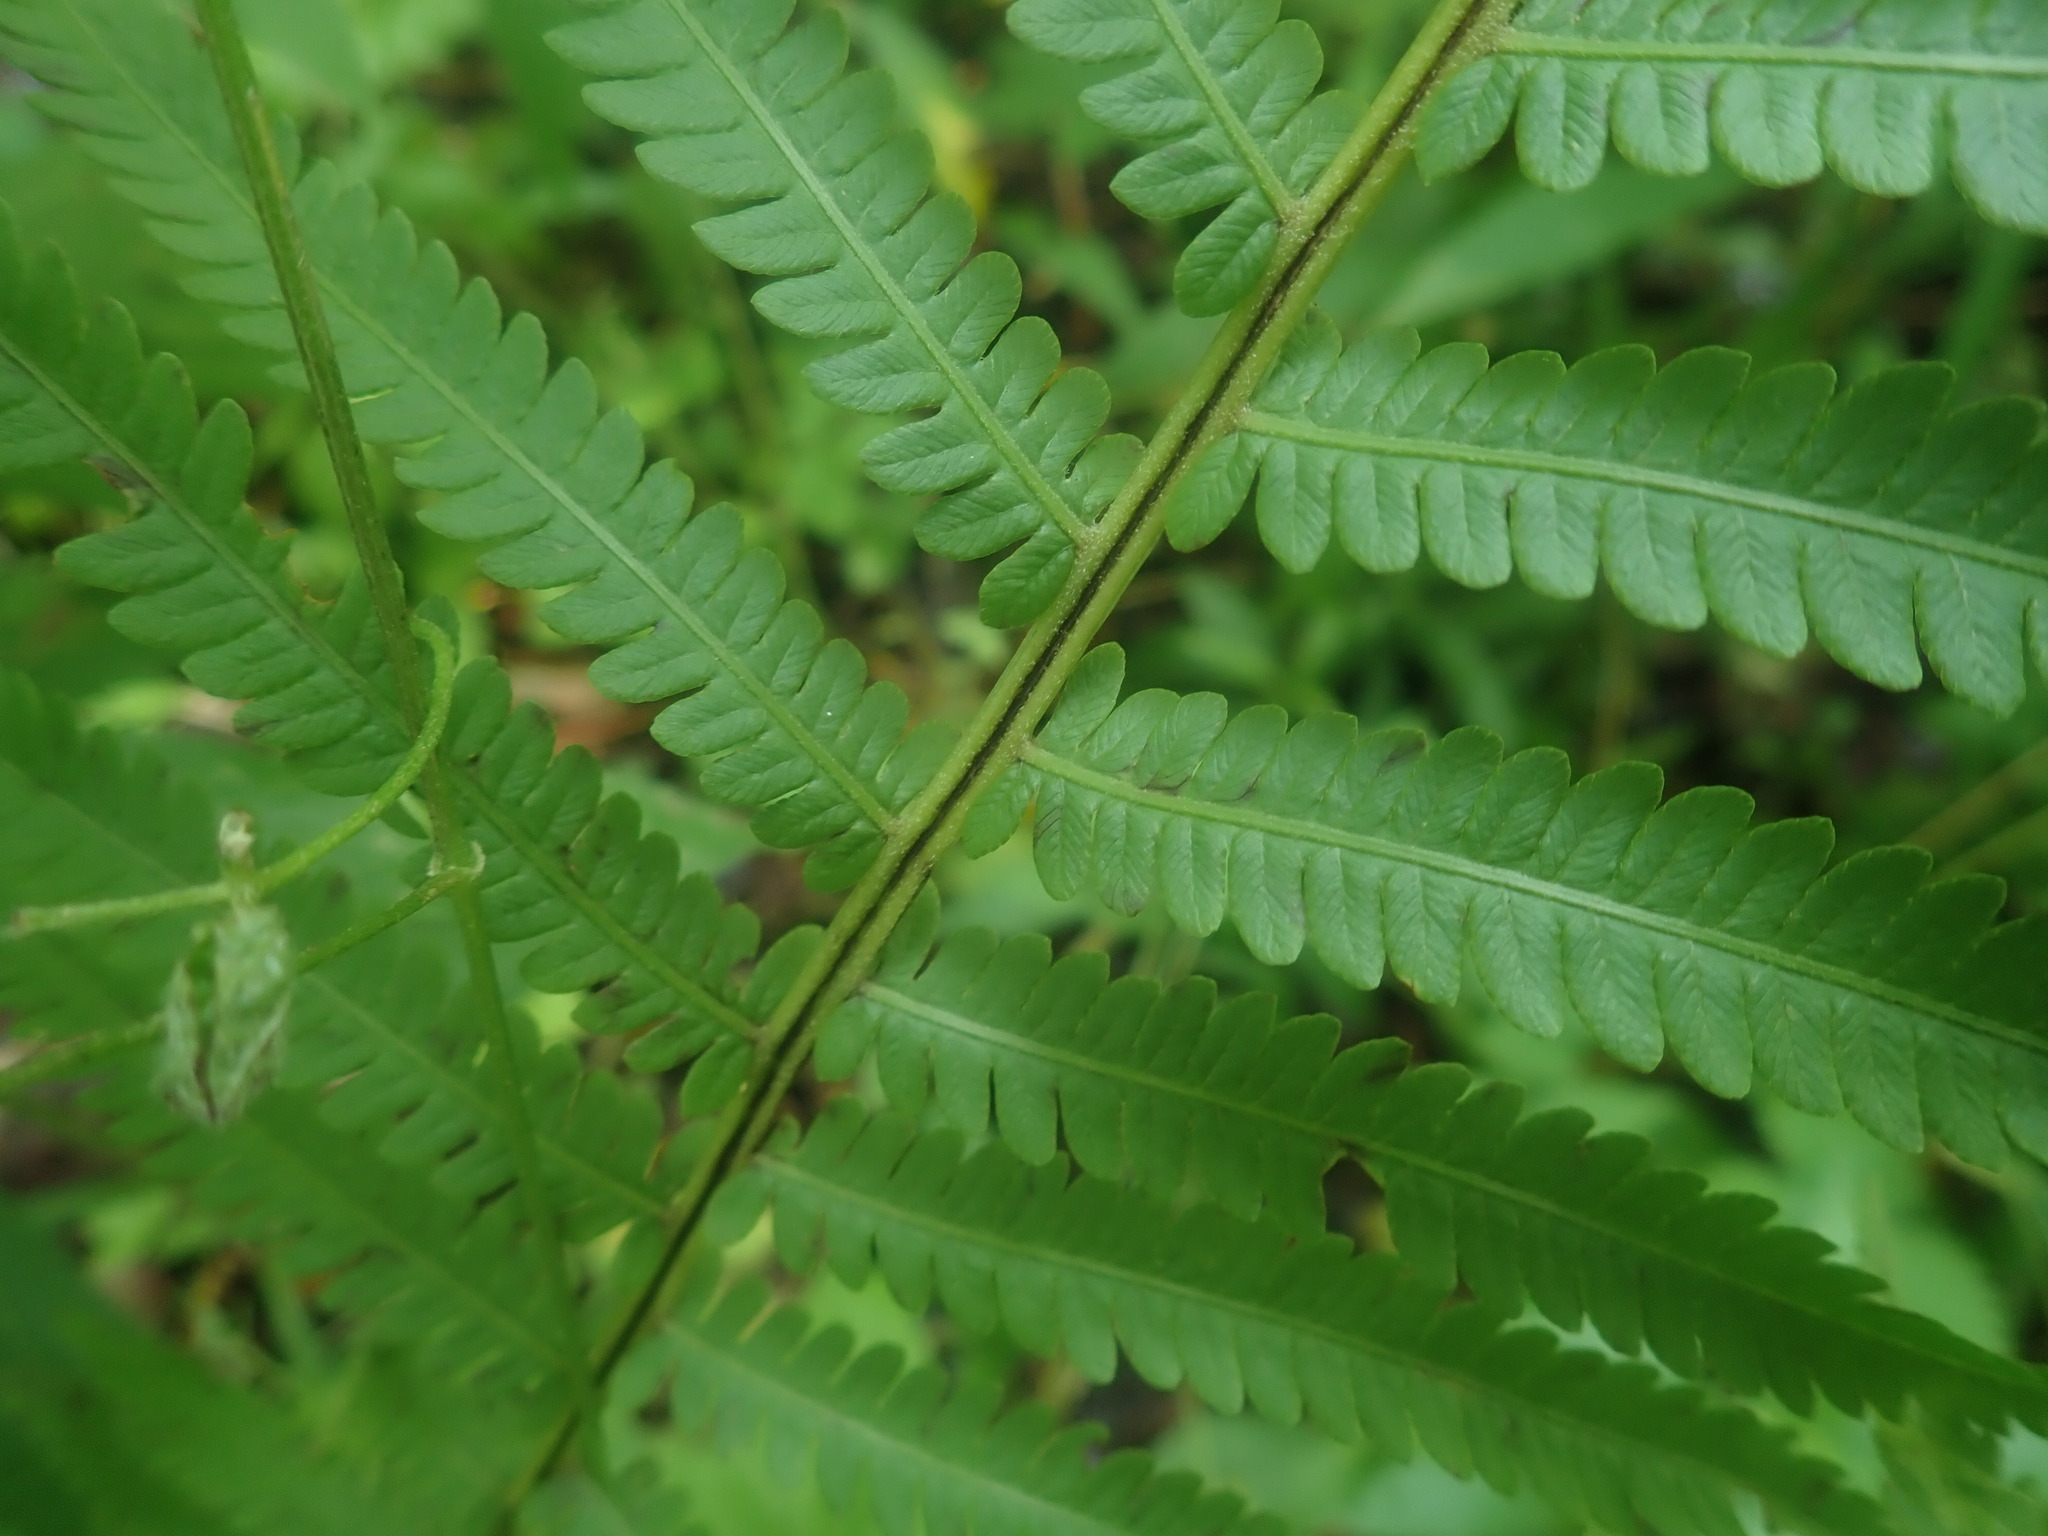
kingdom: Plantae
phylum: Tracheophyta
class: Polypodiopsida
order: Polypodiales
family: Onocleaceae
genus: Matteuccia
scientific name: Matteuccia struthiopteris
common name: Ostrich fern
